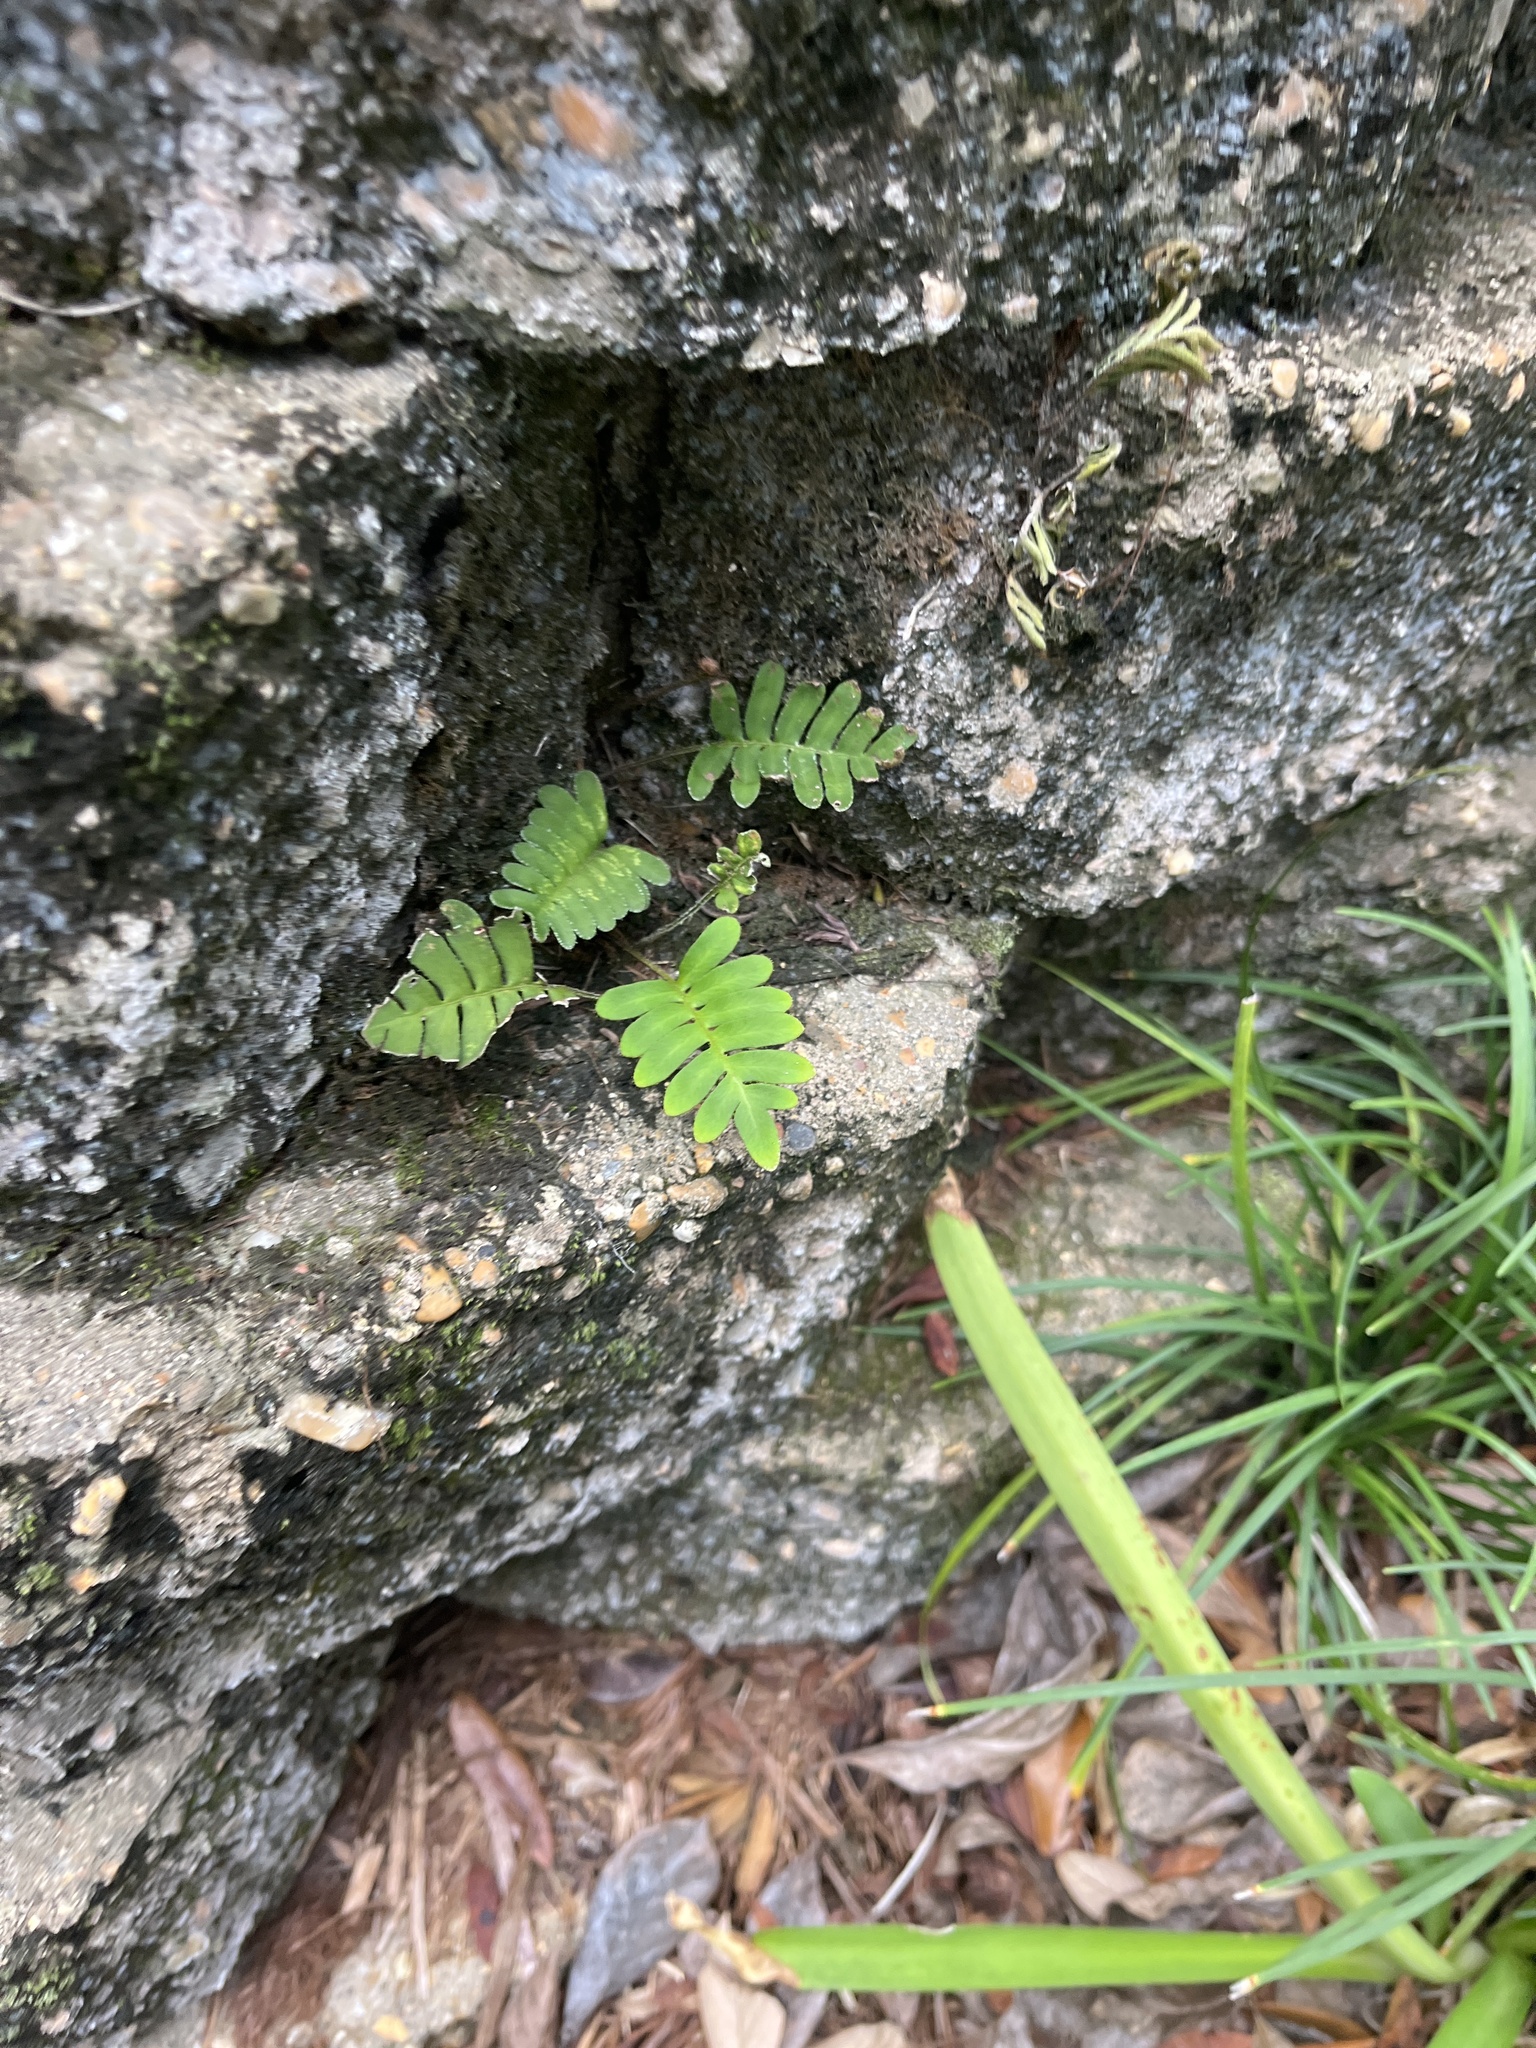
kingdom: Plantae
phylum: Tracheophyta
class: Polypodiopsida
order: Polypodiales
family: Polypodiaceae
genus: Pleopeltis
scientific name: Pleopeltis michauxiana
